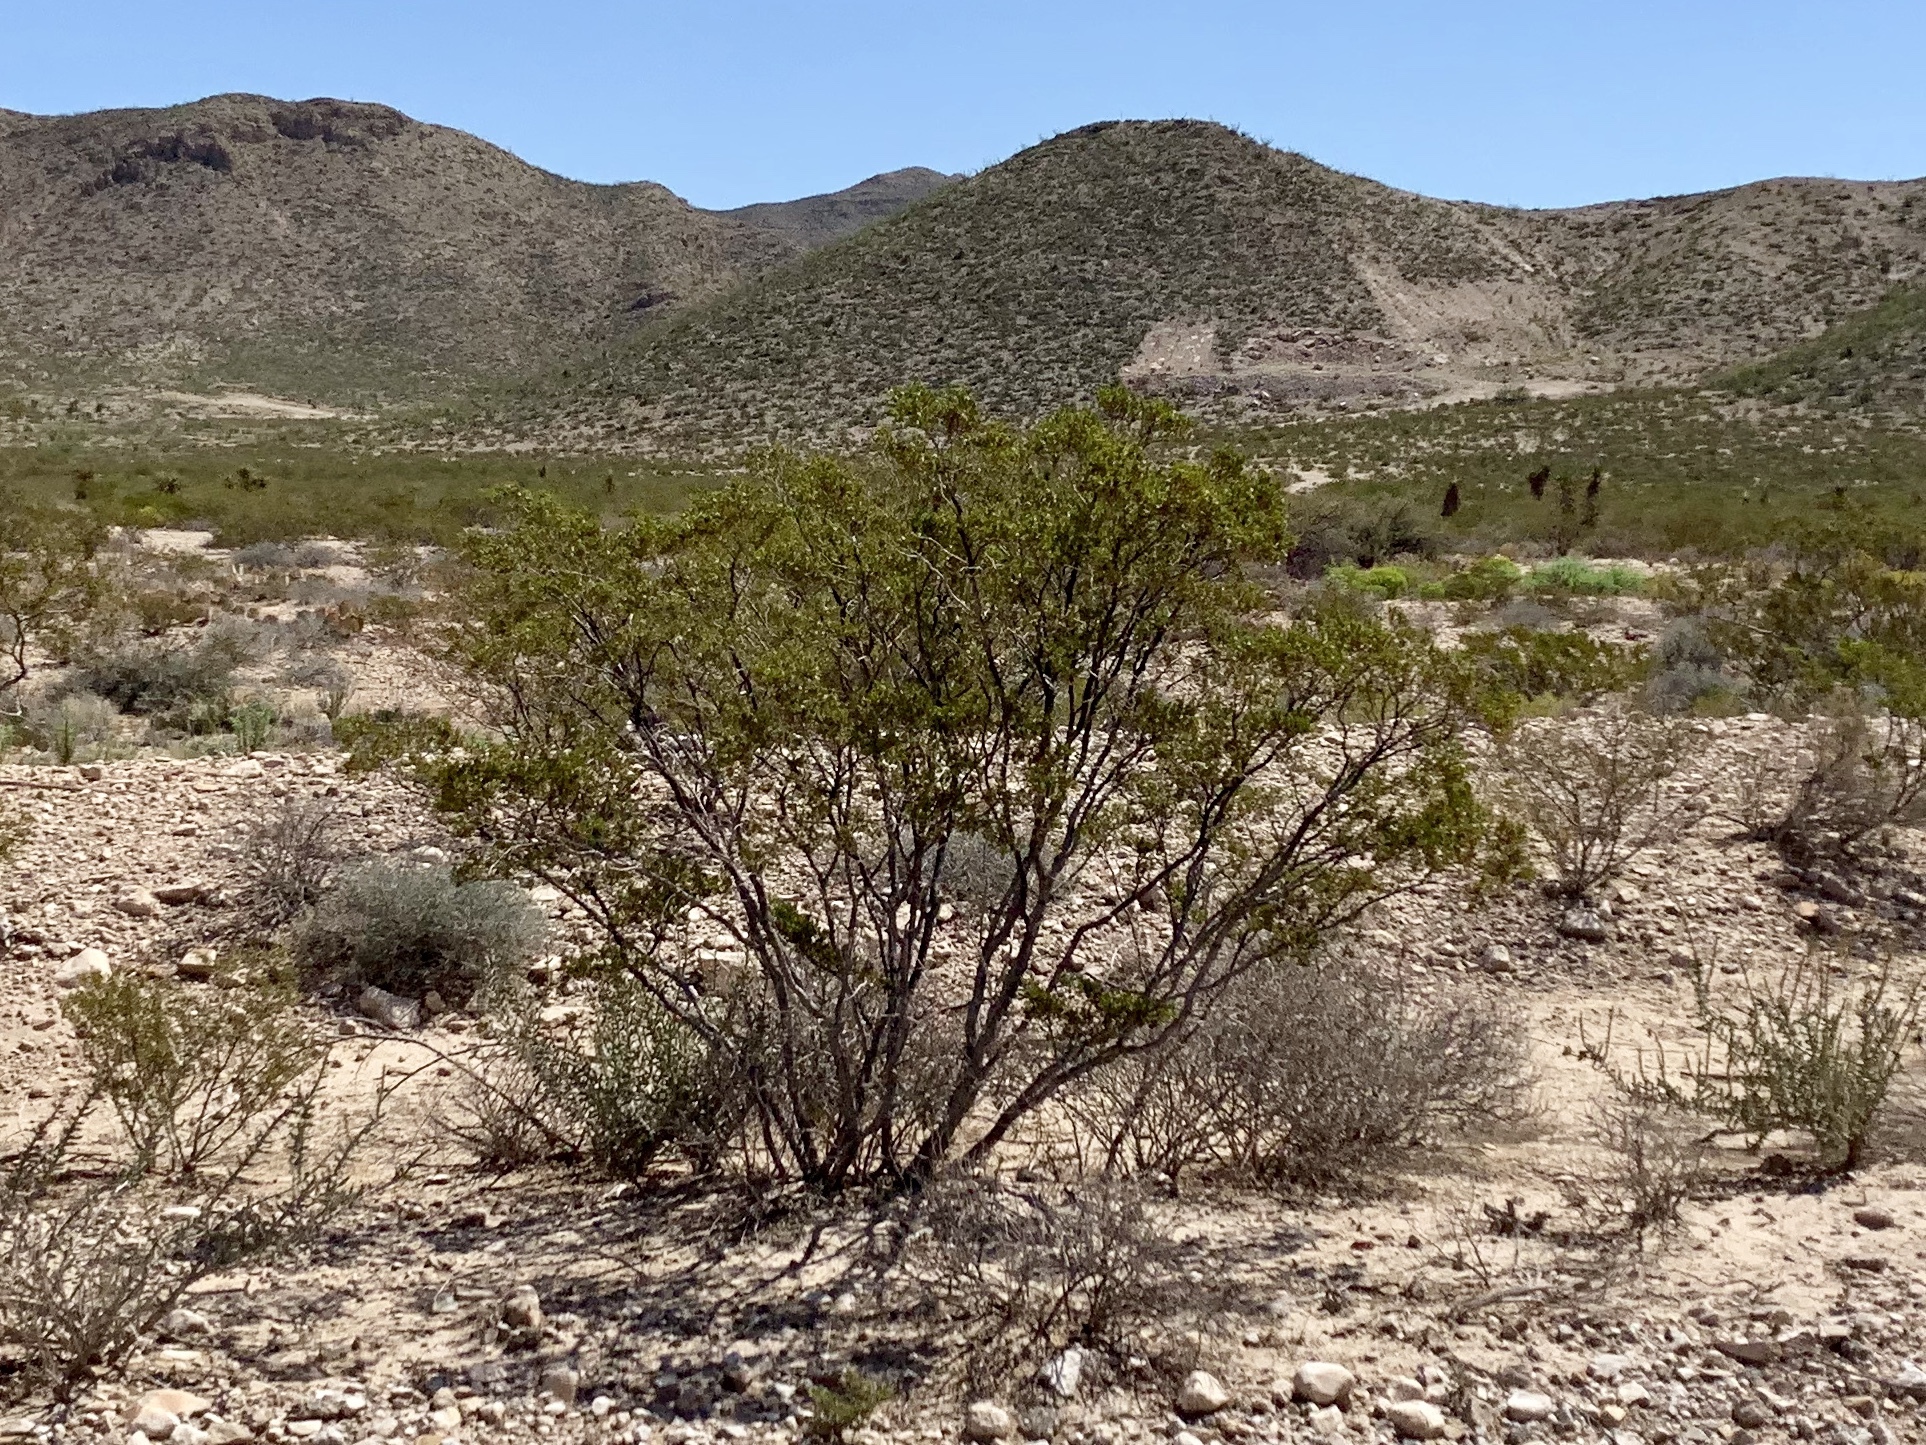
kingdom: Plantae
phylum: Tracheophyta
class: Magnoliopsida
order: Zygophyllales
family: Zygophyllaceae
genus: Larrea
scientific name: Larrea tridentata
